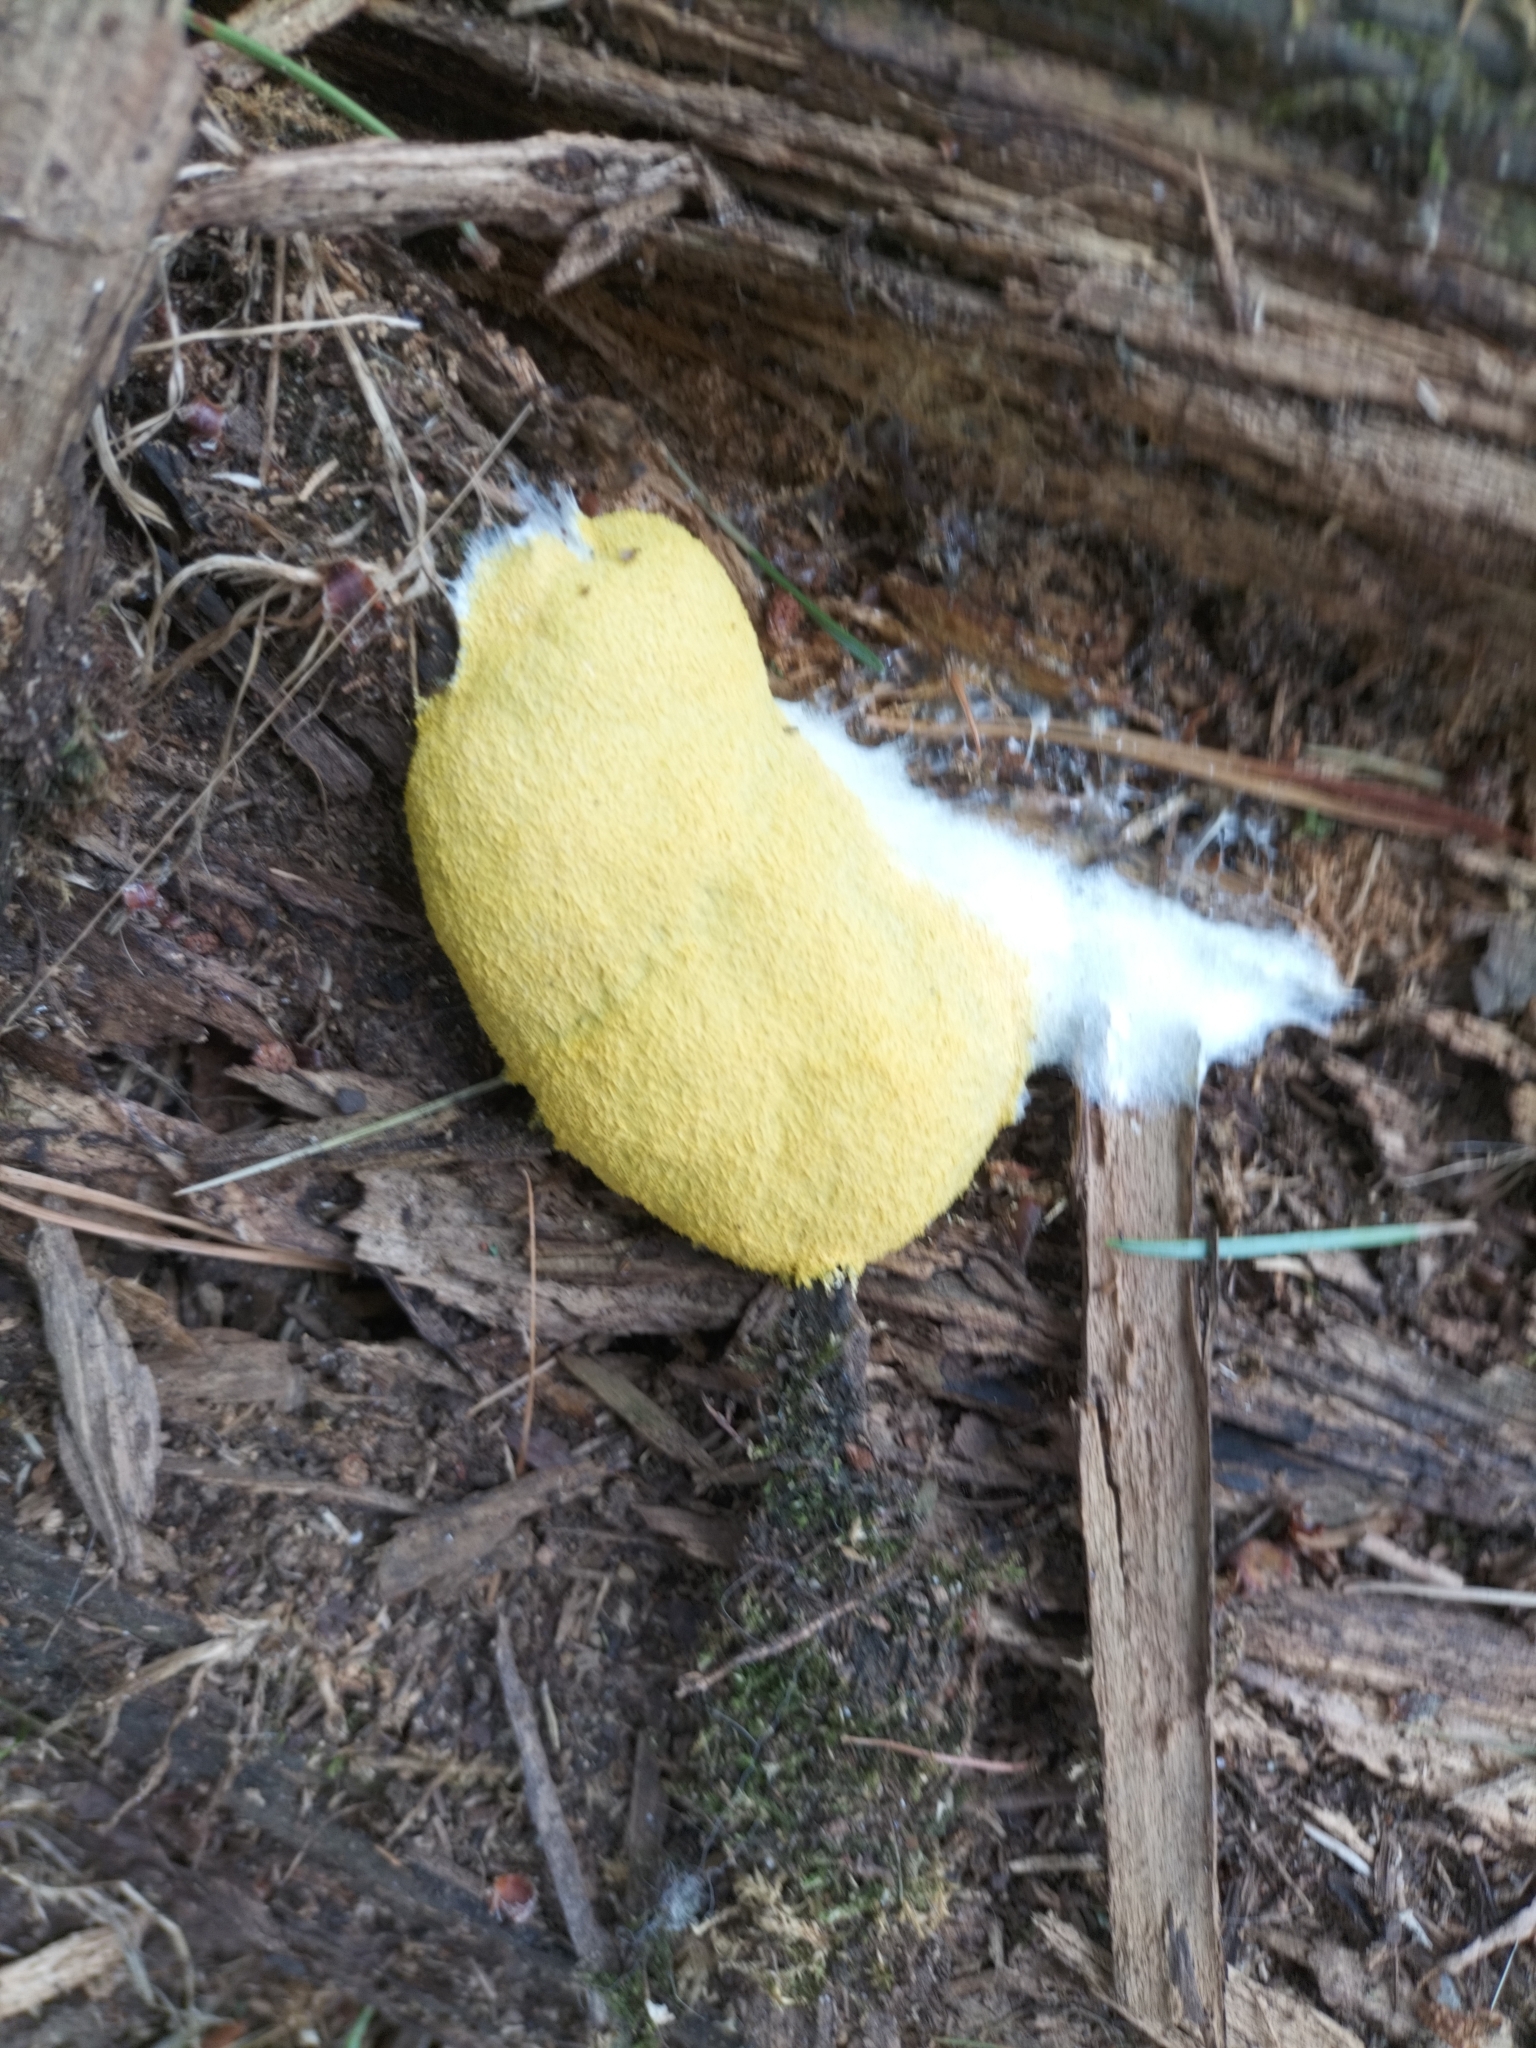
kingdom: Protozoa
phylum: Mycetozoa
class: Myxomycetes
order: Physarales
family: Physaraceae
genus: Fuligo
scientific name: Fuligo septica
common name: Dog vomit slime mold
